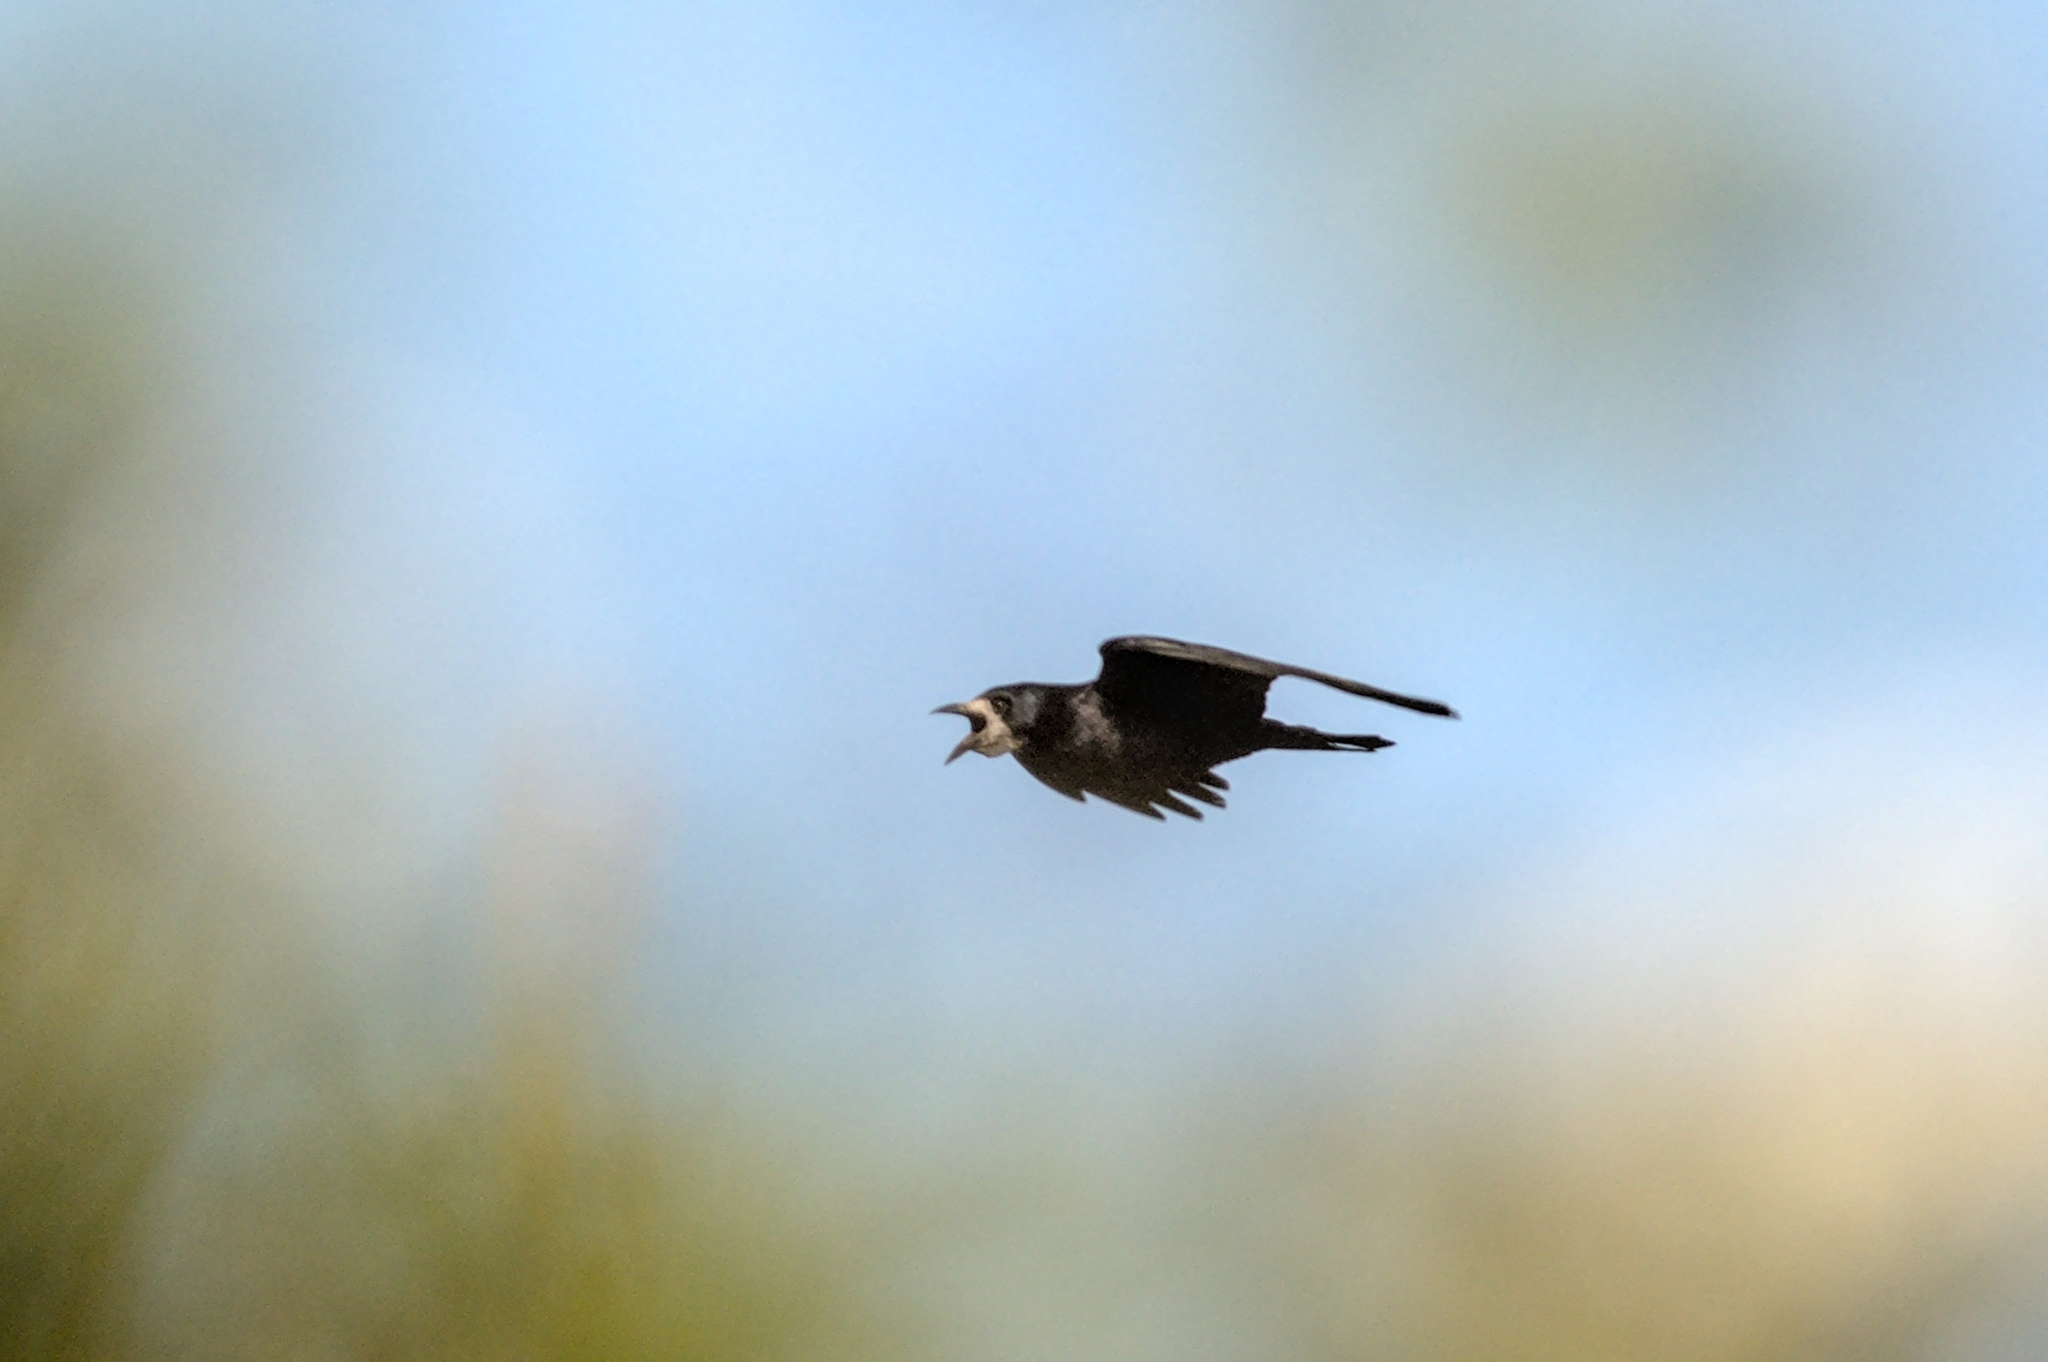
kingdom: Animalia
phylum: Chordata
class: Aves
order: Passeriformes
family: Corvidae
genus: Corvus
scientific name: Corvus frugilegus
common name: Rook
